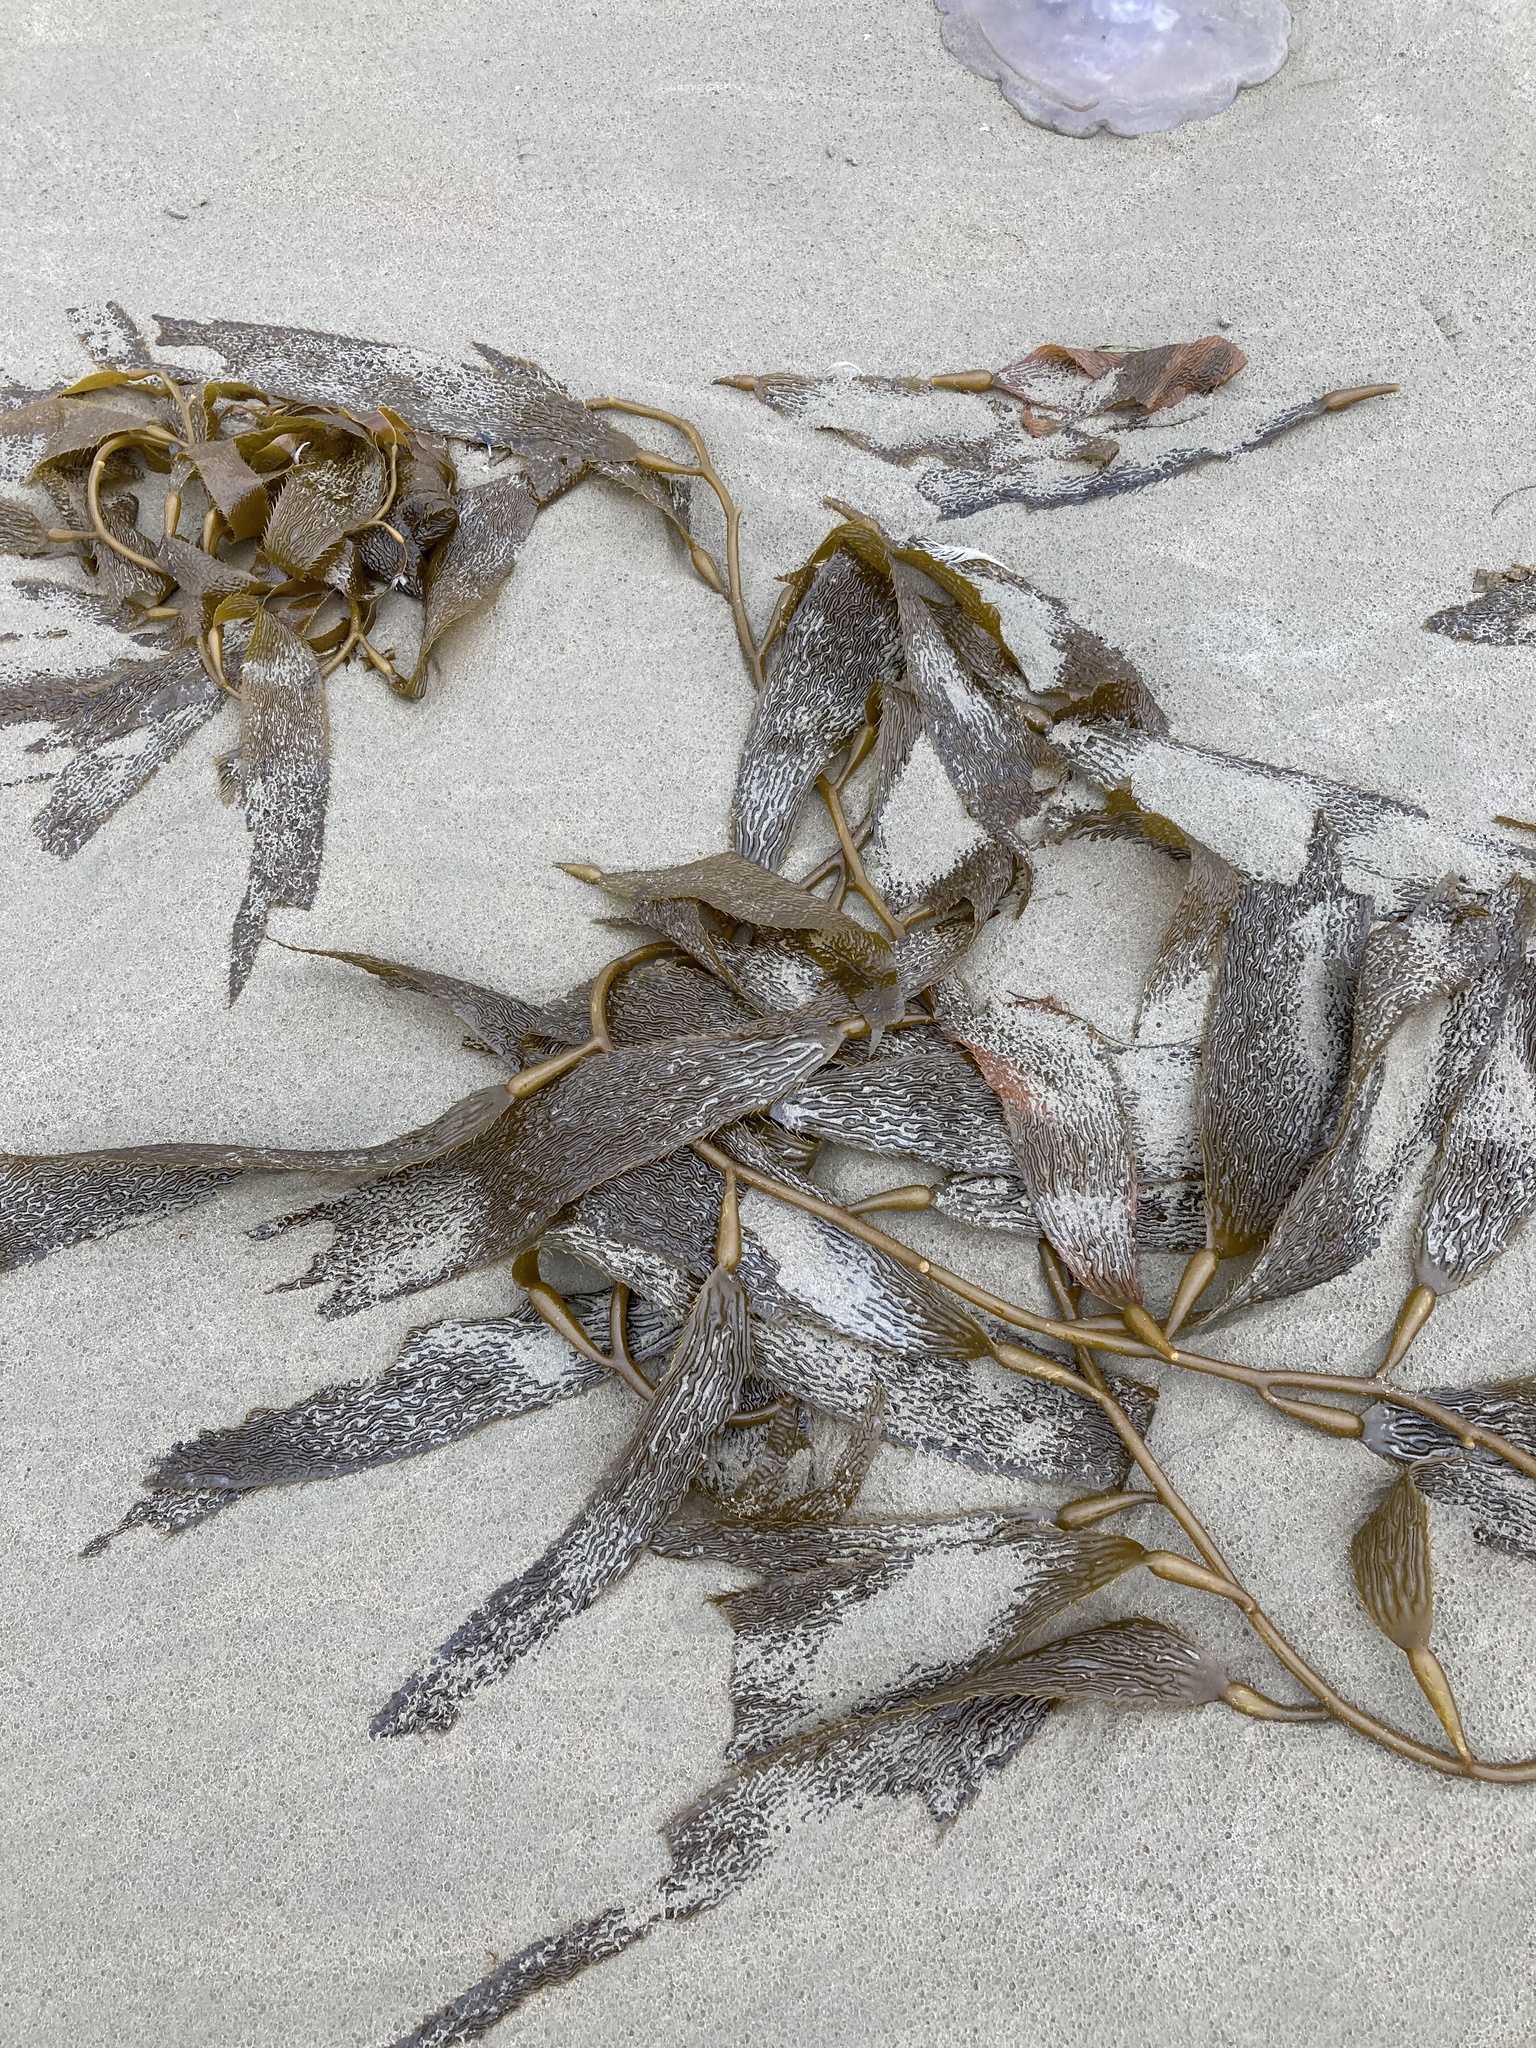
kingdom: Chromista
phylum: Ochrophyta
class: Phaeophyceae
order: Laminariales
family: Laminariaceae
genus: Macrocystis
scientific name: Macrocystis pyrifera
